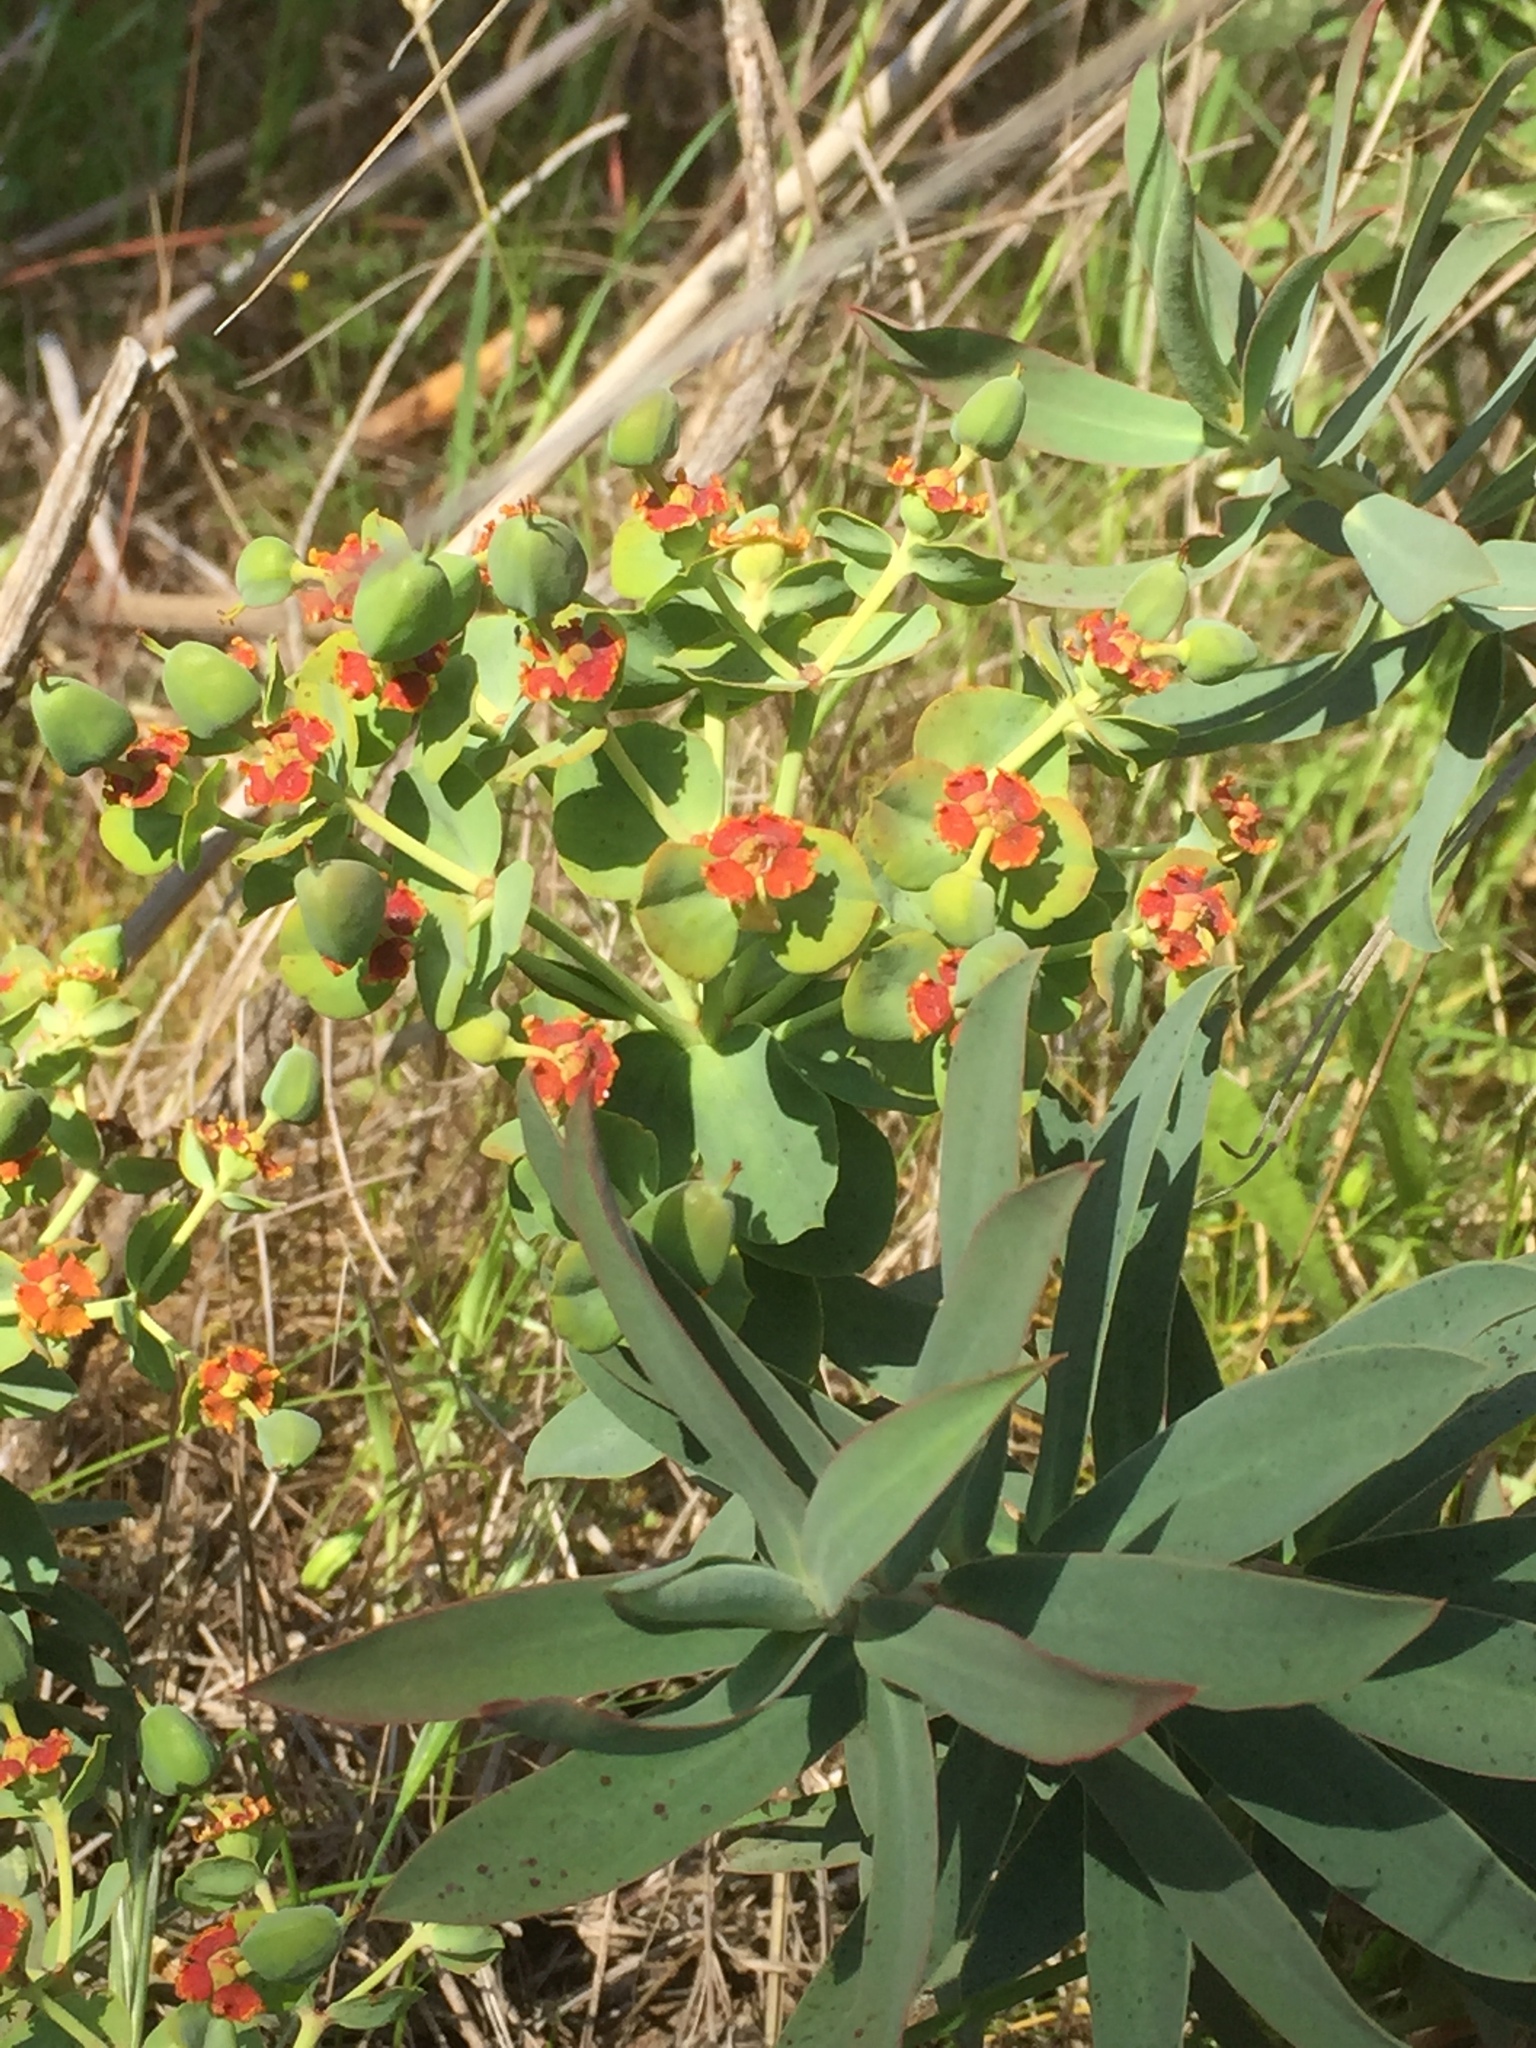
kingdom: Plantae
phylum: Tracheophyta
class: Magnoliopsida
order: Malpighiales
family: Euphorbiaceae
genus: Euphorbia
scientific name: Euphorbia oxyphylla
